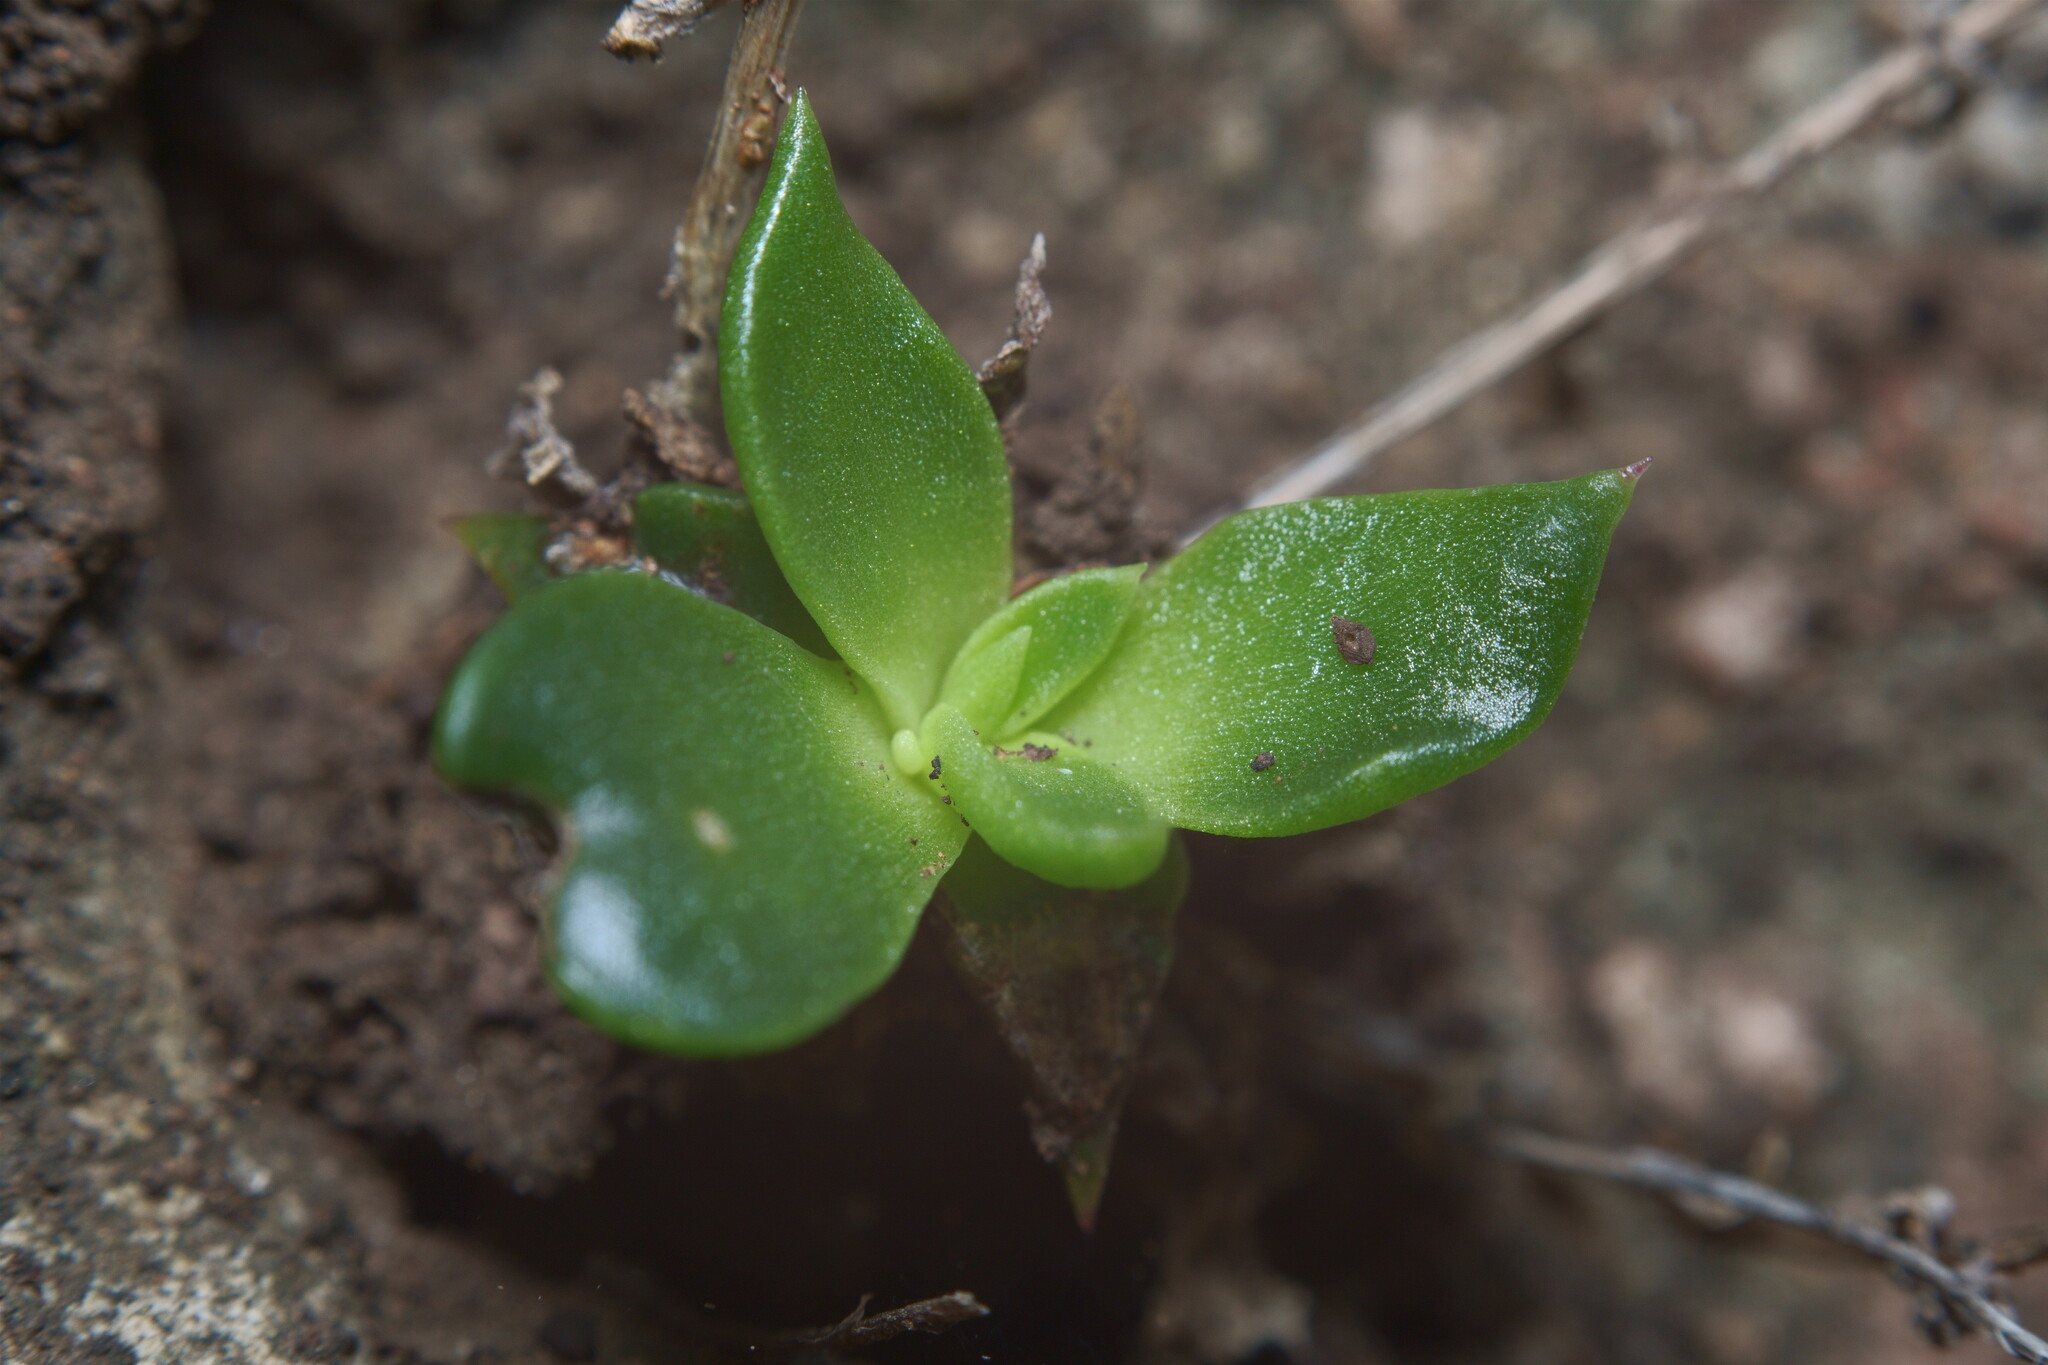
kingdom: Plantae
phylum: Tracheophyta
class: Magnoliopsida
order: Saxifragales
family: Crassulaceae
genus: Dudleya
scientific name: Dudleya cymosa
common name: Canyon dudleya
